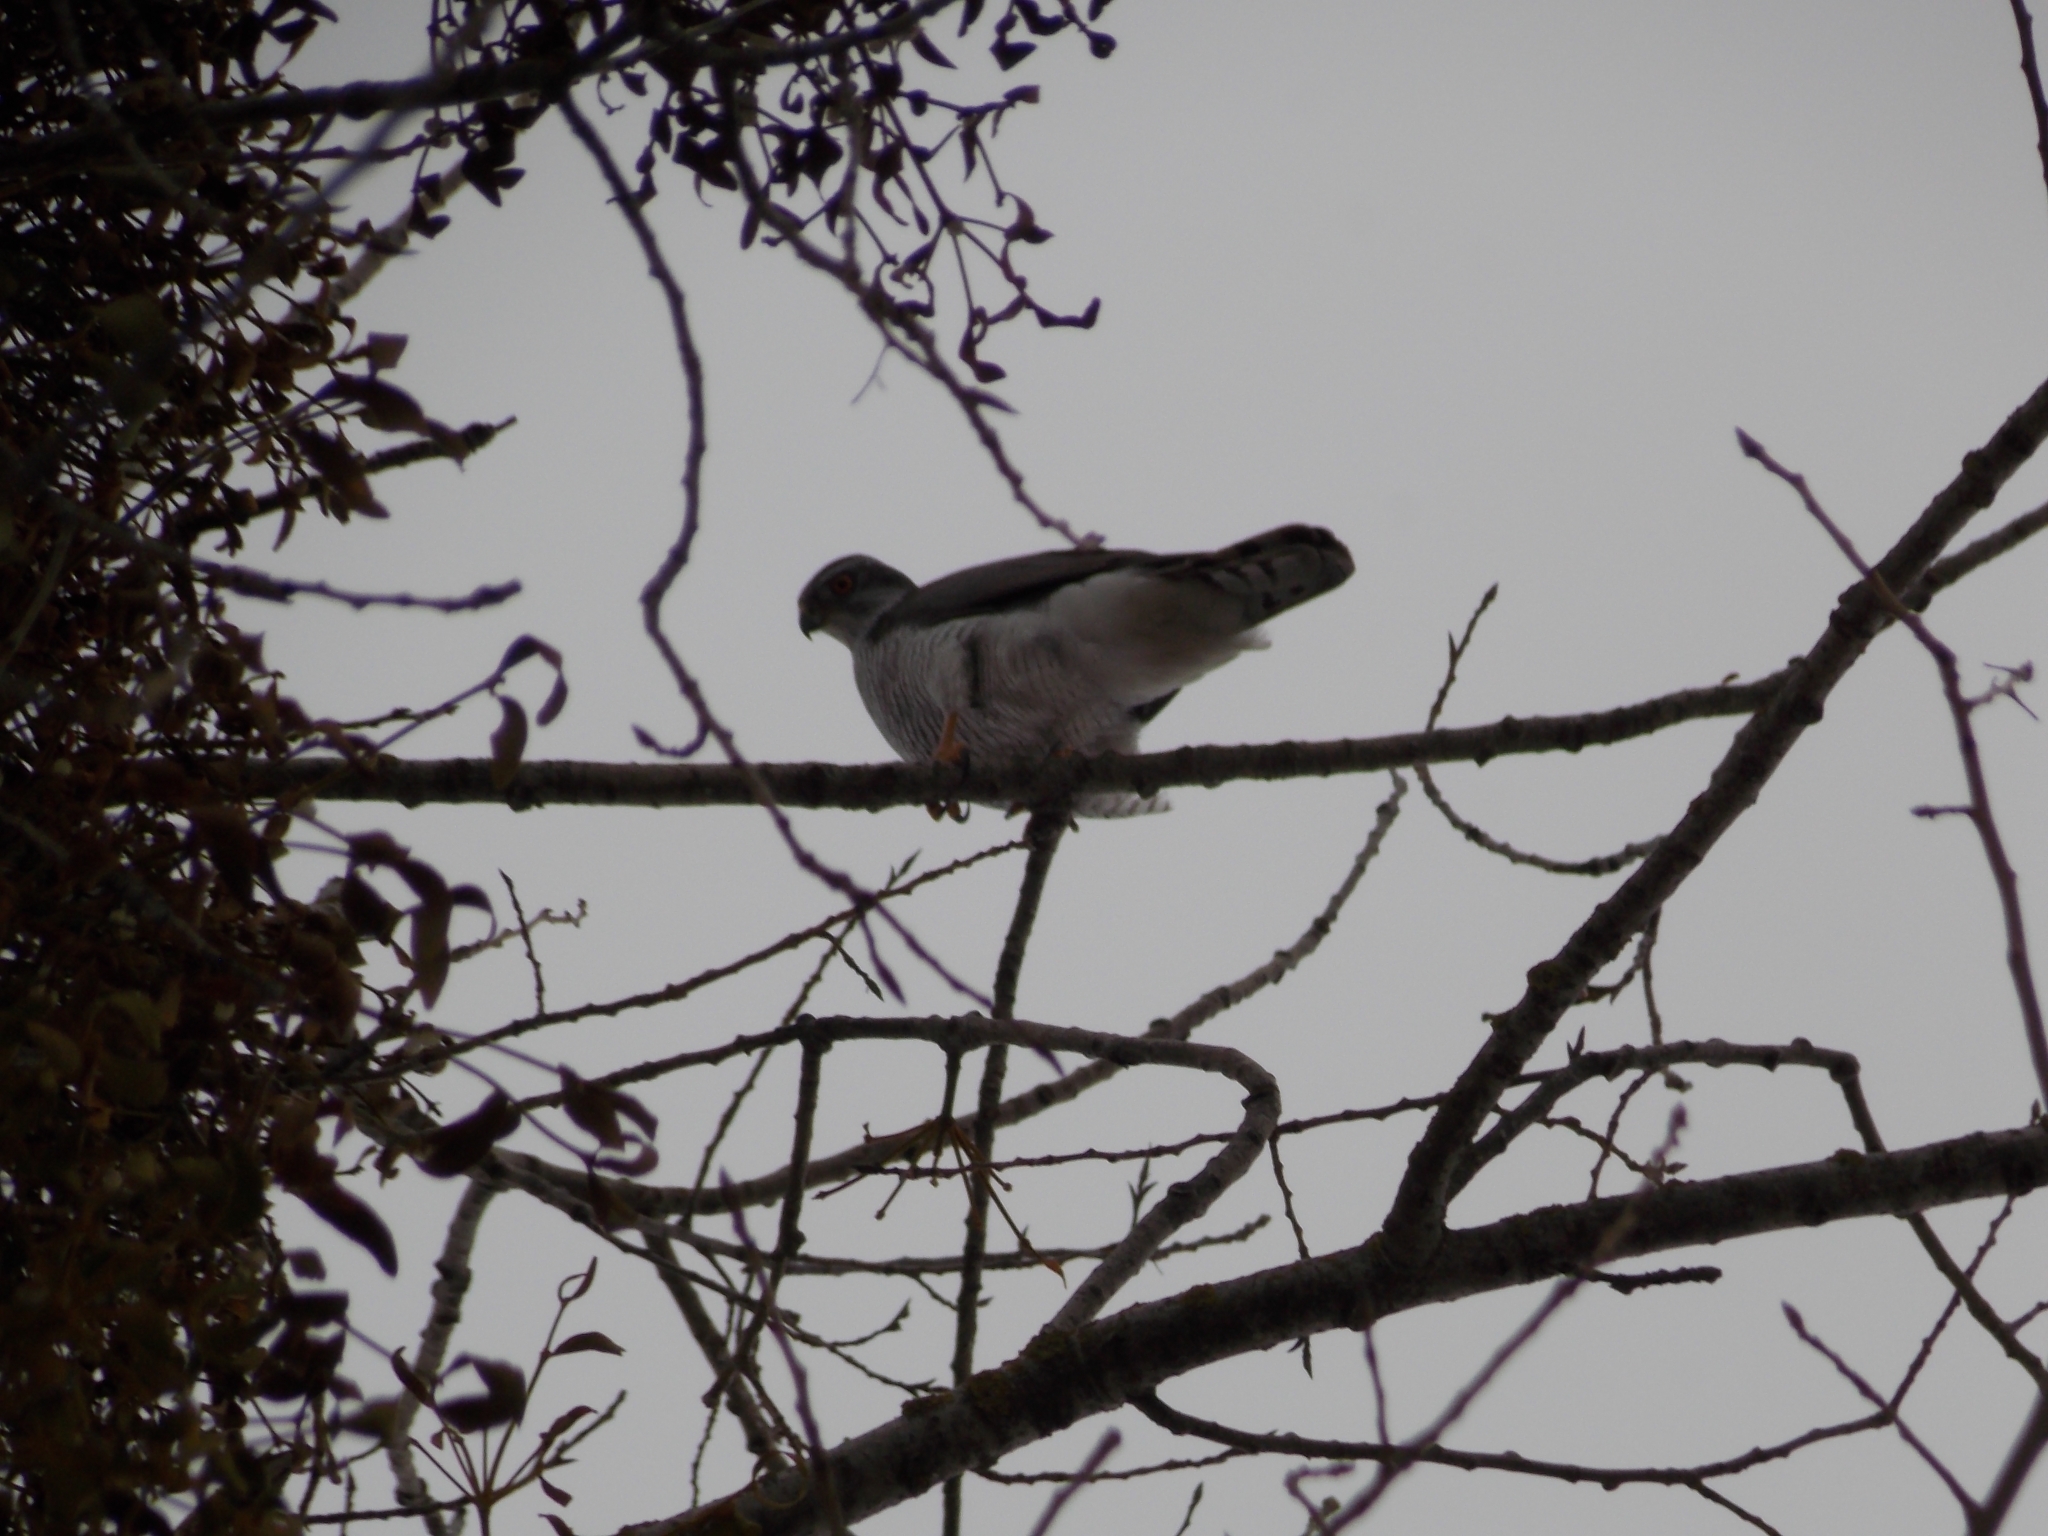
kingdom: Animalia
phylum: Chordata
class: Aves
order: Accipitriformes
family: Accipitridae
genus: Accipiter
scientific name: Accipiter gentilis
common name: Northern goshawk
